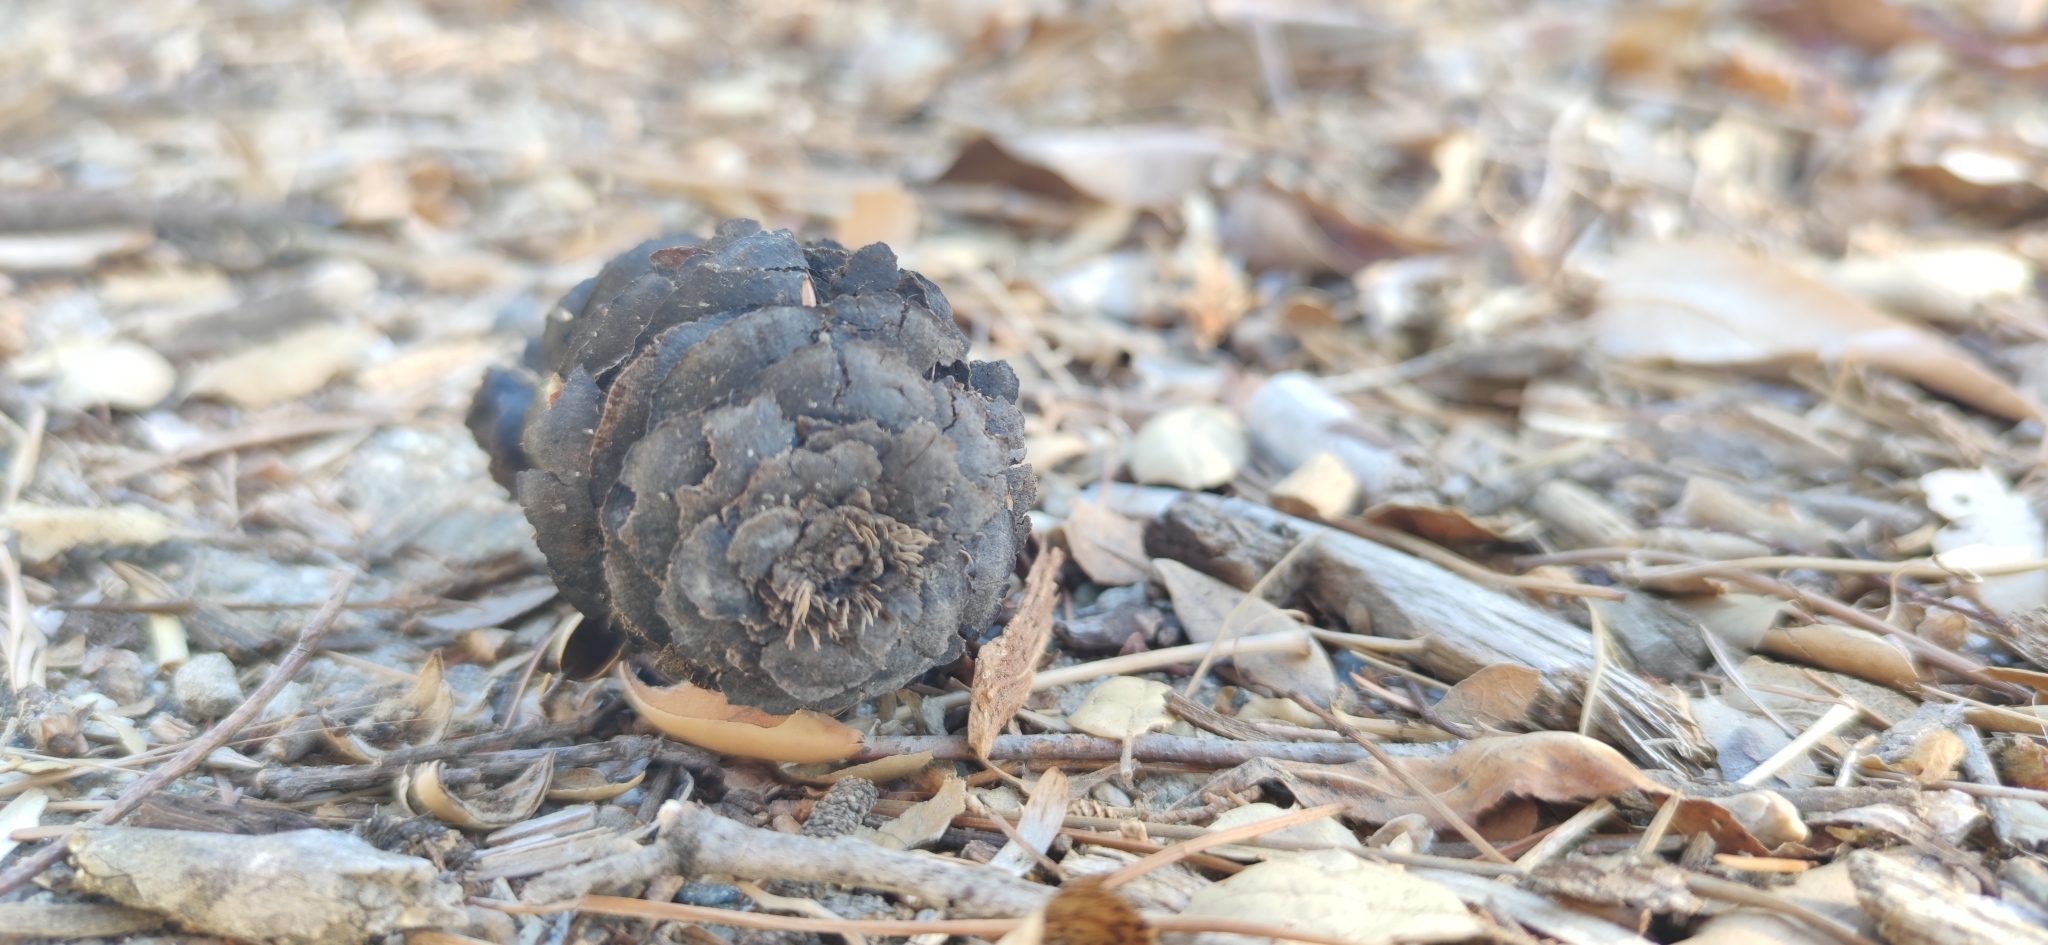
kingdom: Plantae
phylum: Tracheophyta
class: Pinopsida
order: Pinales
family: Pinaceae
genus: Pseudotsuga
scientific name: Pseudotsuga macrocarpa
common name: Big-cone douglas-fir
